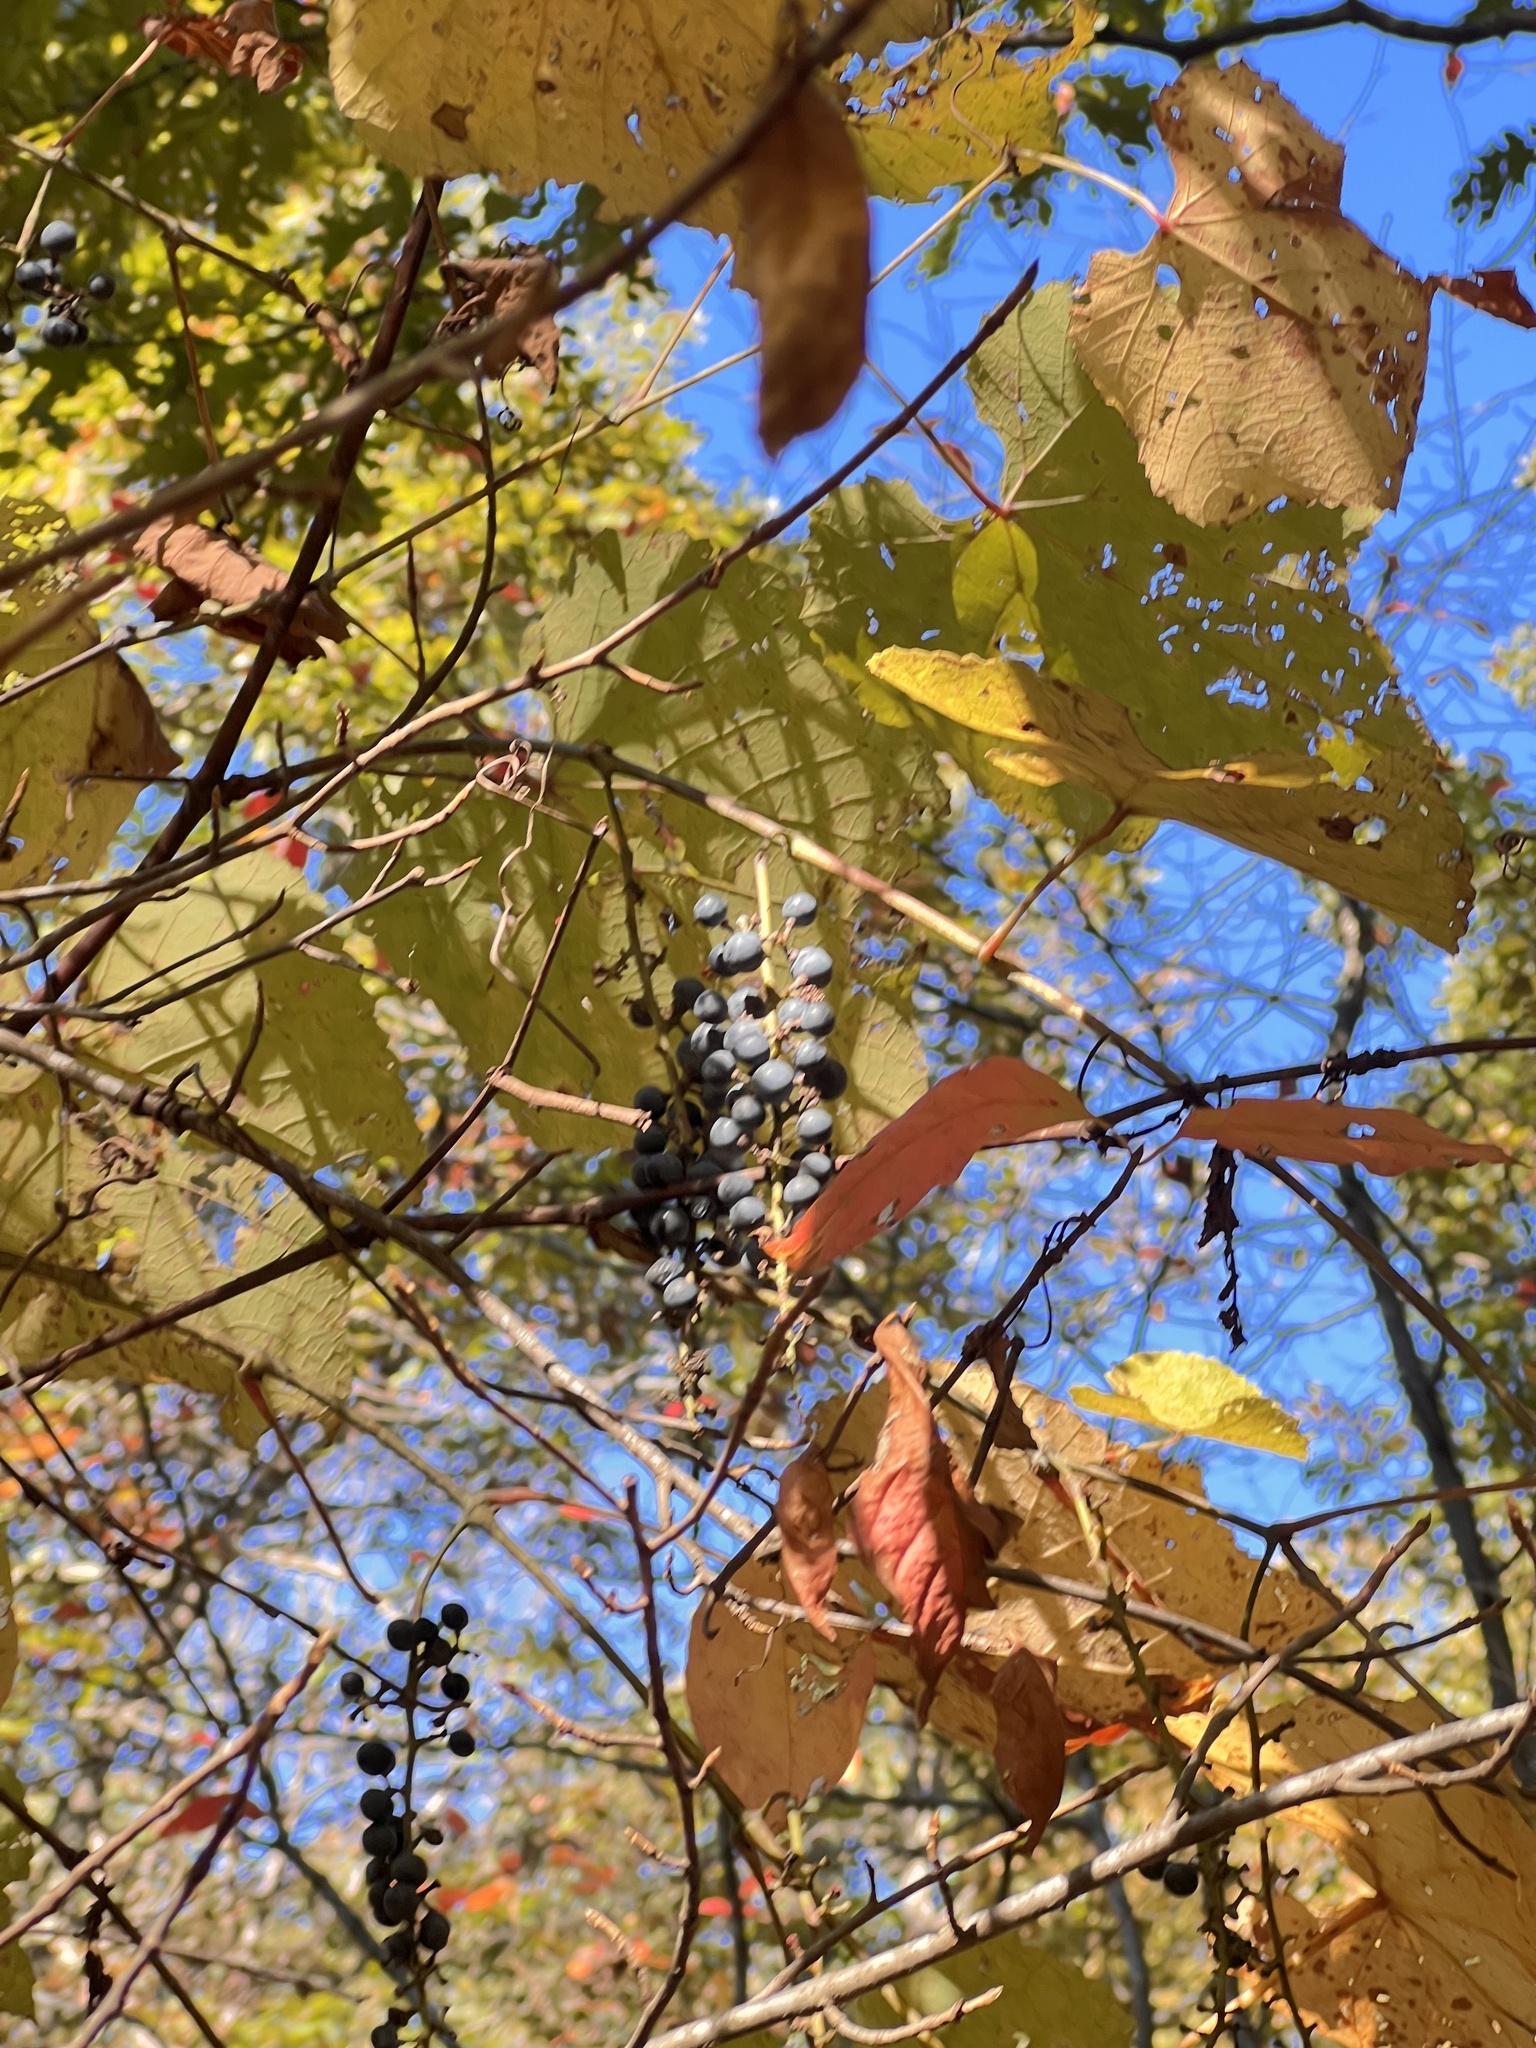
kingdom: Plantae
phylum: Tracheophyta
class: Magnoliopsida
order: Vitales
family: Vitaceae
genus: Vitis
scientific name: Vitis aestivalis
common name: Pigeon grape
